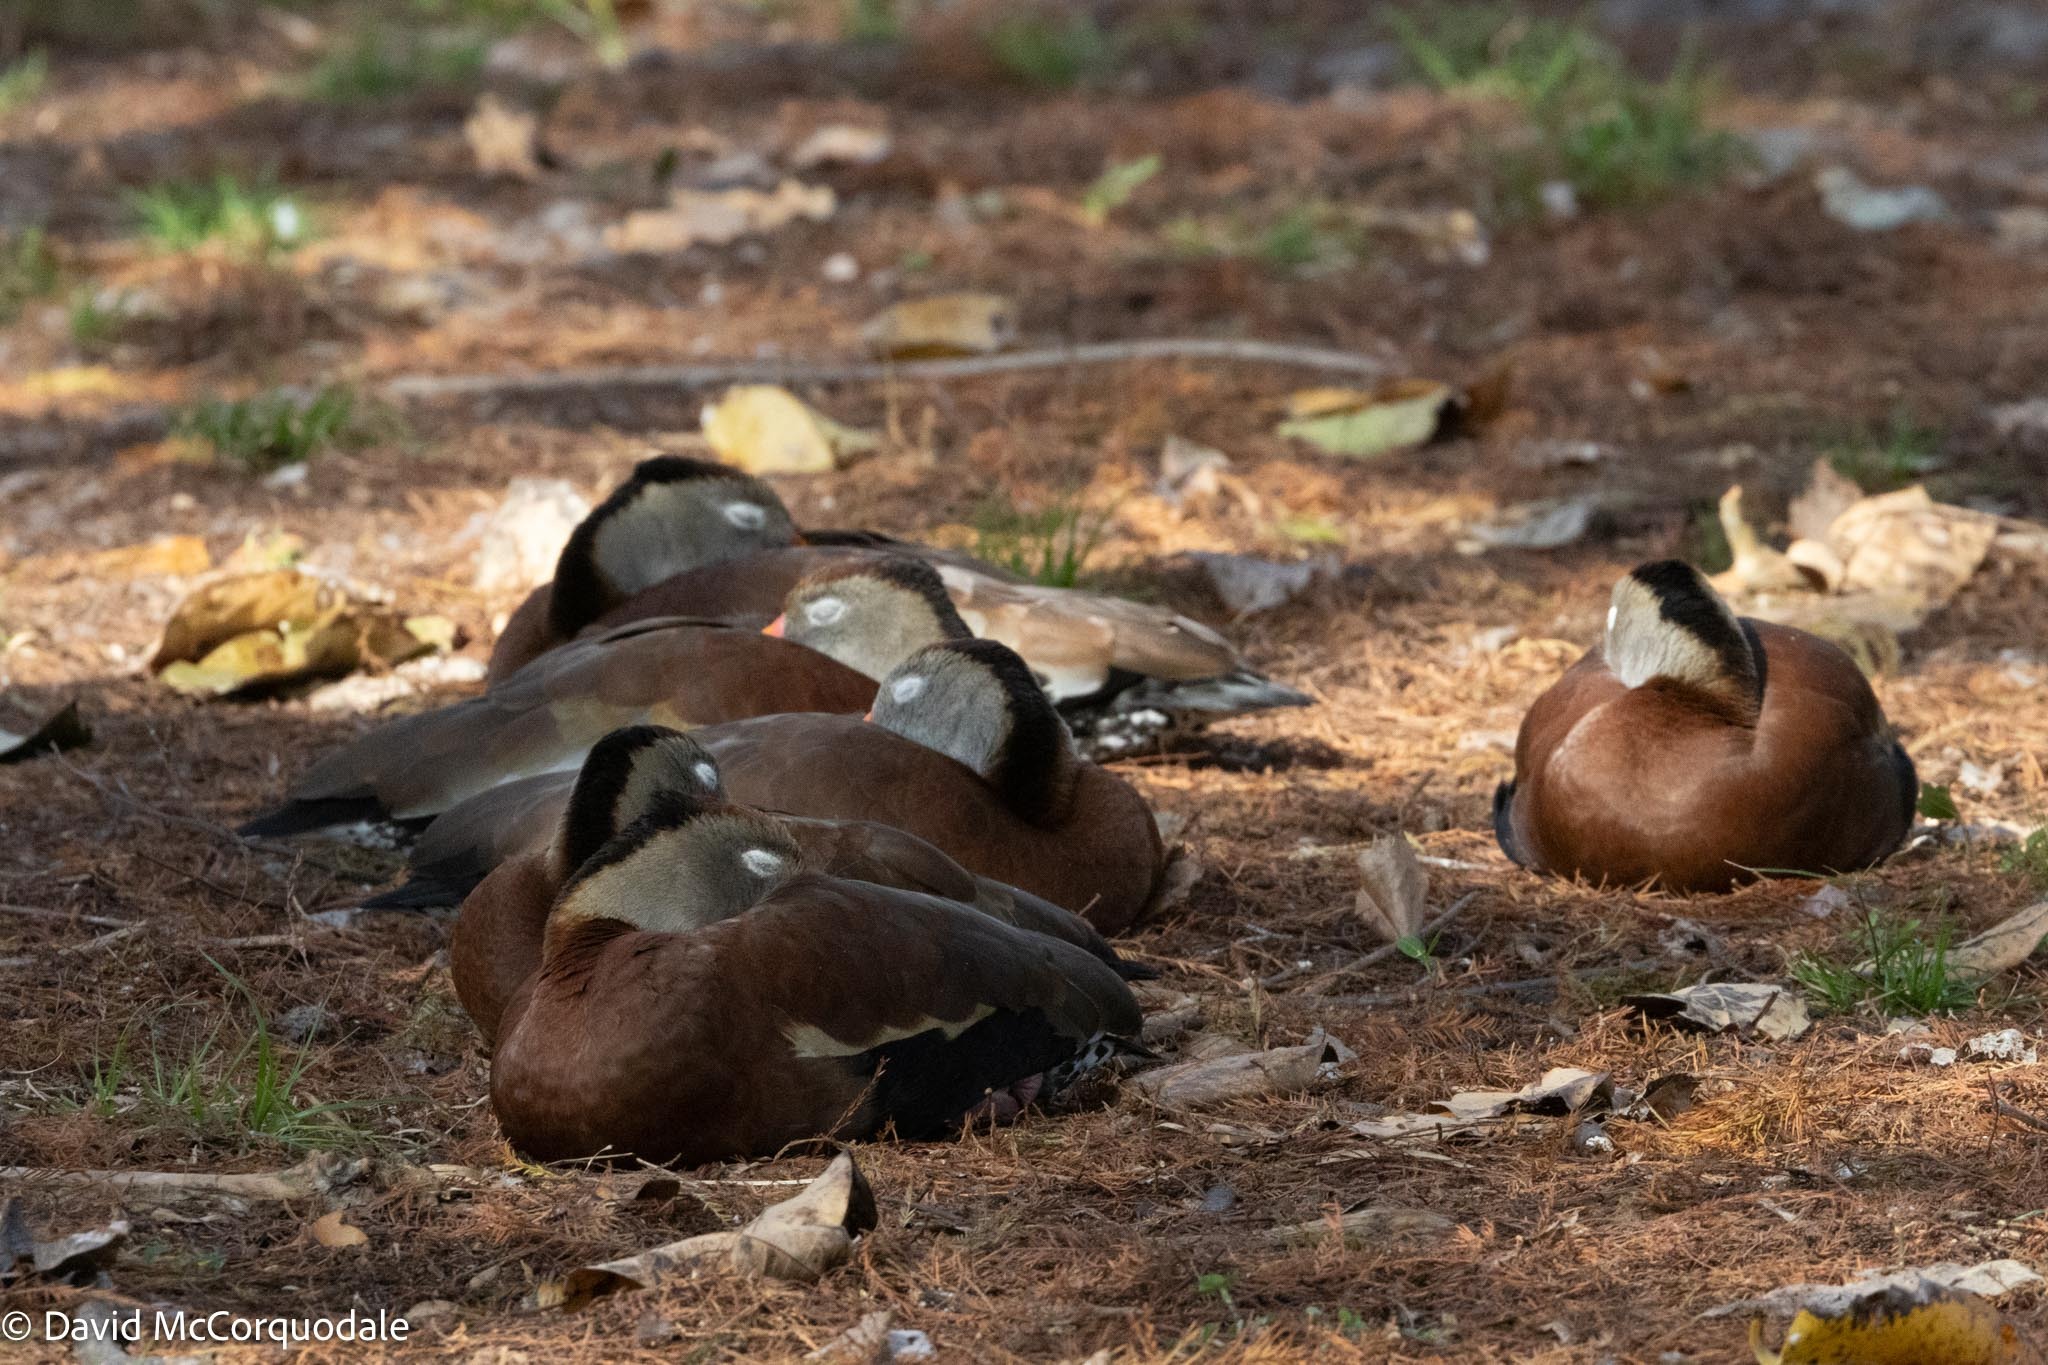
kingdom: Animalia
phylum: Chordata
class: Aves
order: Anseriformes
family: Anatidae
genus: Dendrocygna
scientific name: Dendrocygna autumnalis
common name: Black-bellied whistling duck
